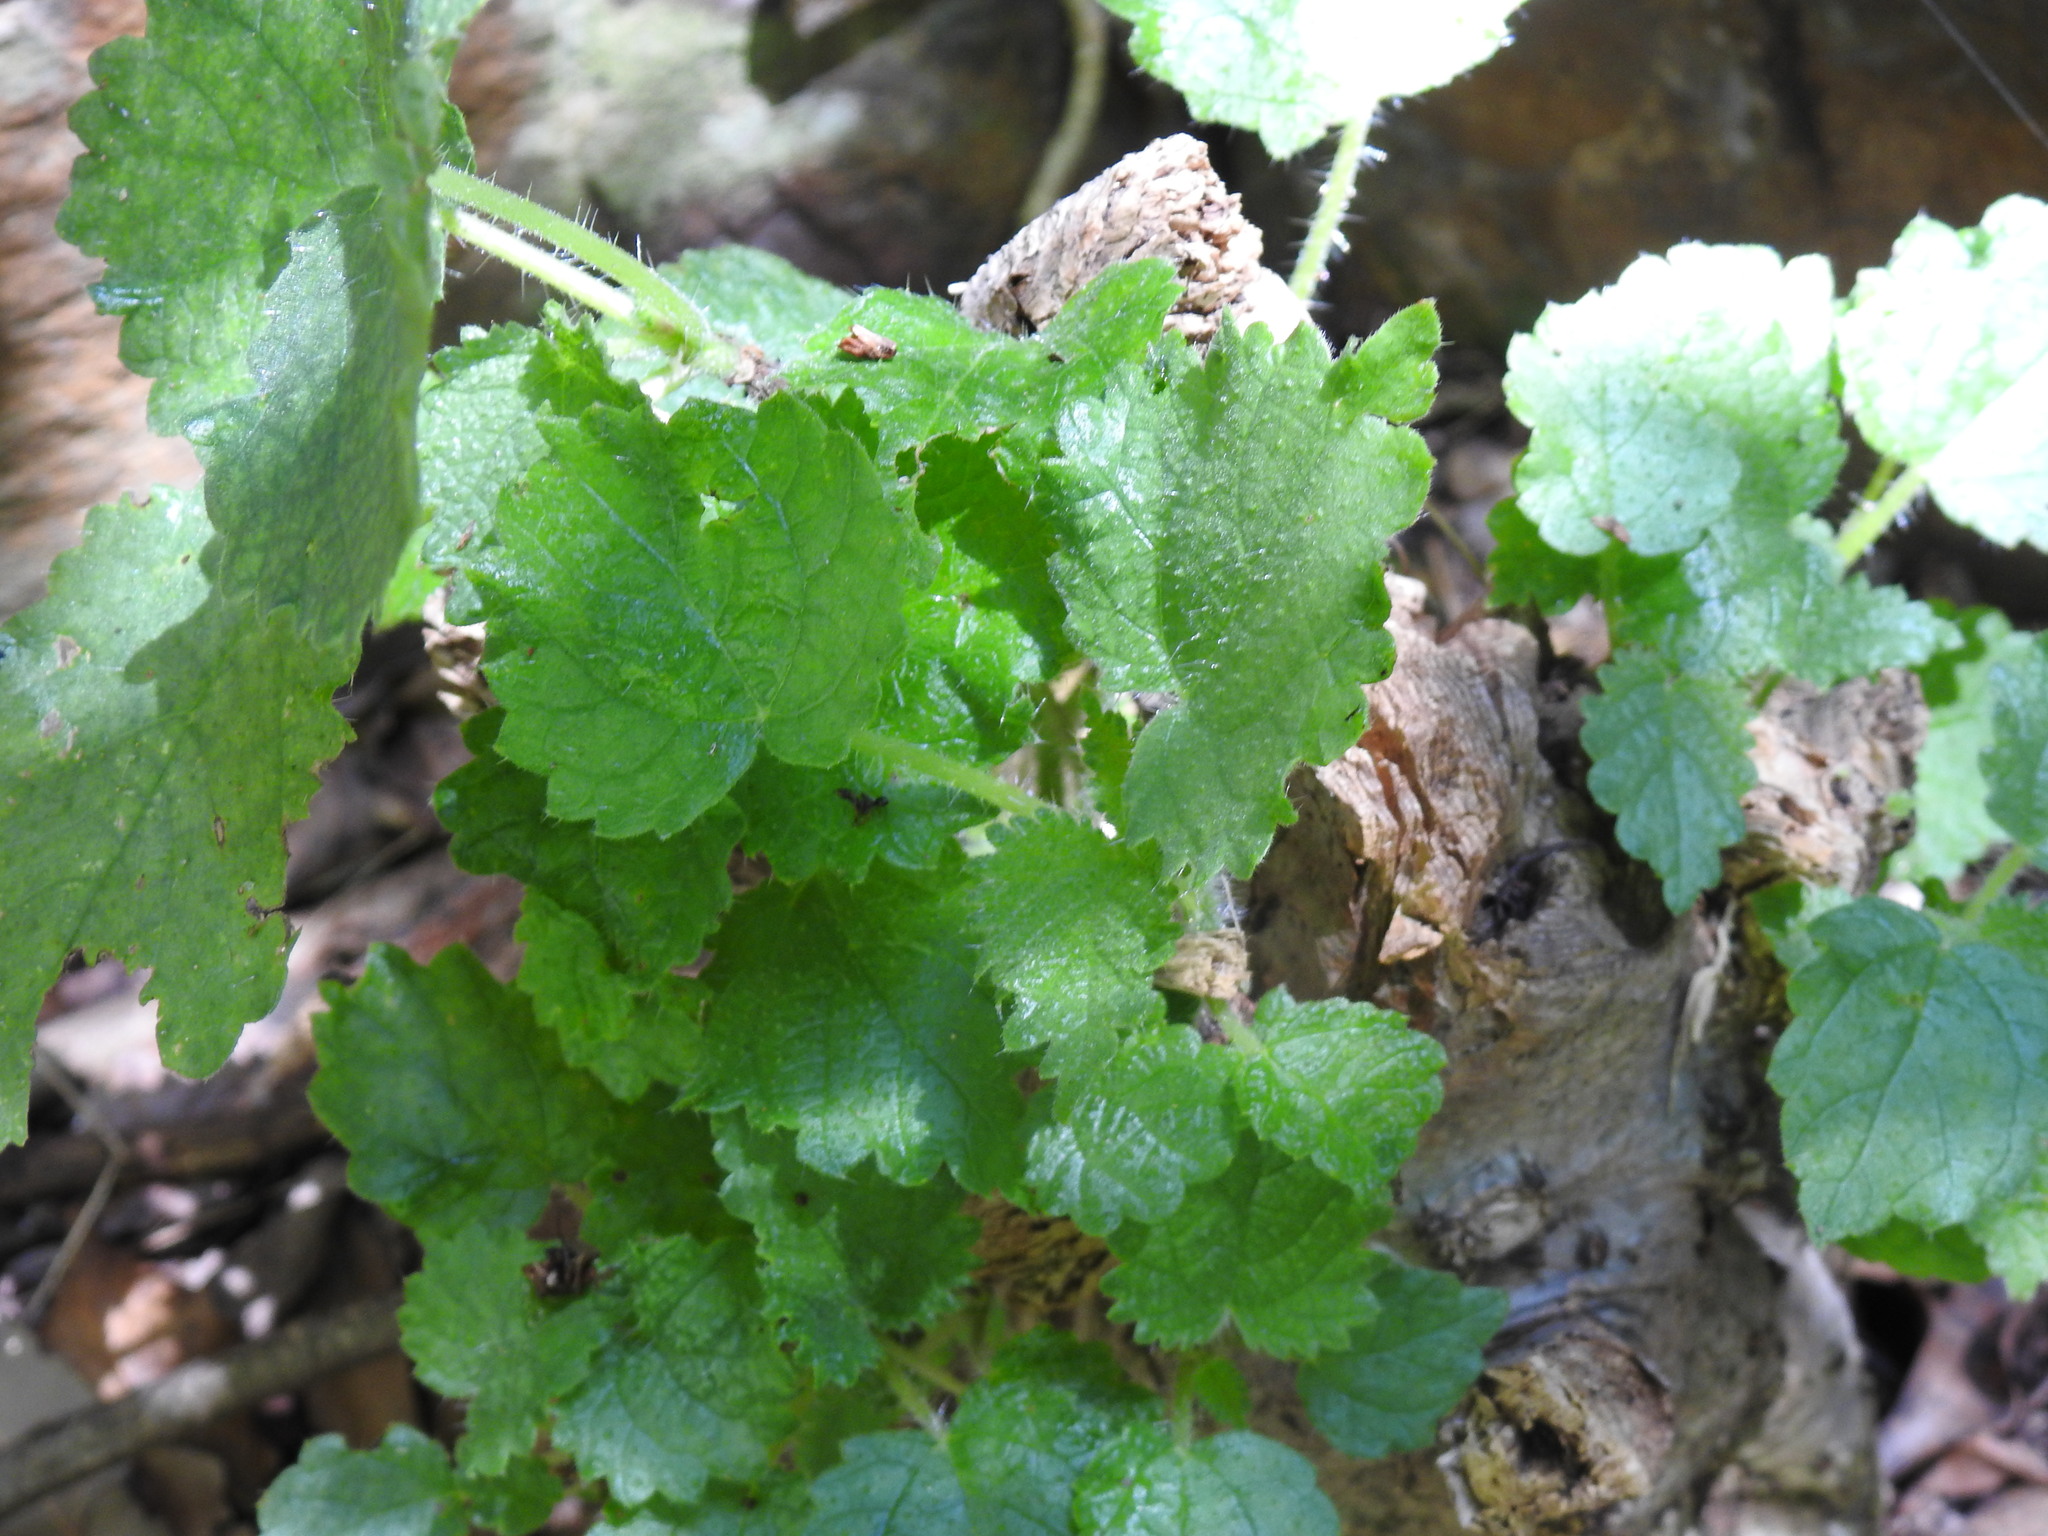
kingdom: Plantae
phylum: Tracheophyta
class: Magnoliopsida
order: Rosales
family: Urticaceae
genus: Obetia
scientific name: Obetia tenax
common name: Rock tree nettle
